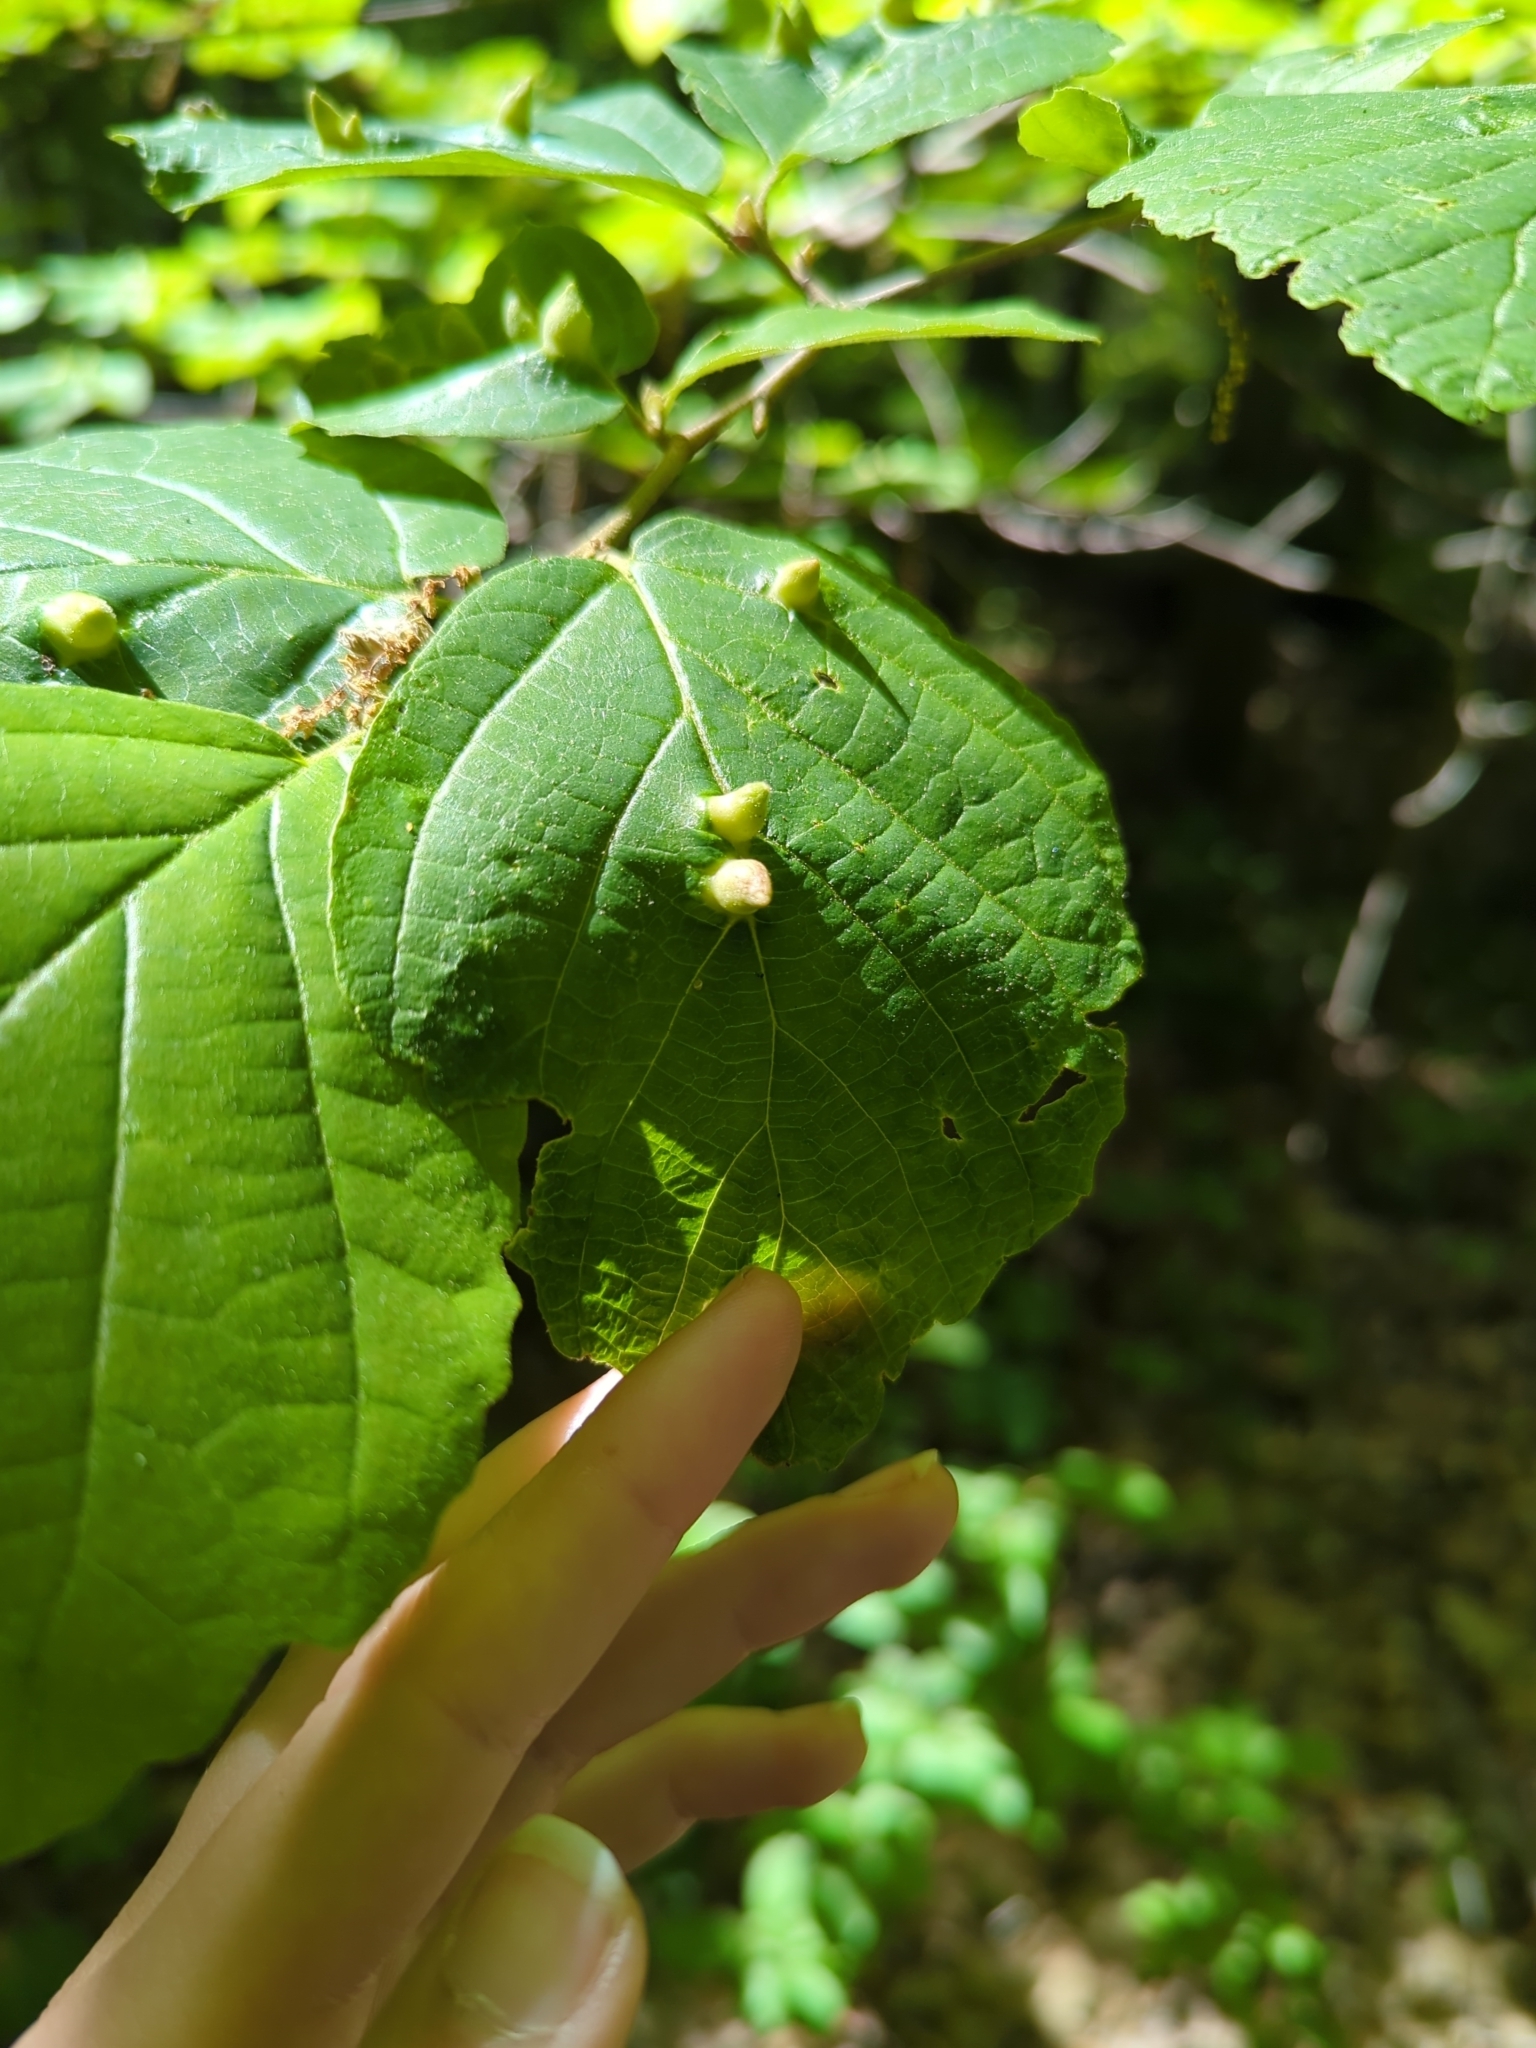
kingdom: Animalia
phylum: Arthropoda
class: Insecta
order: Hemiptera
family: Aphididae
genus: Hormaphis
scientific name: Hormaphis hamamelidis
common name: Witch-hazel cone gall aphid
